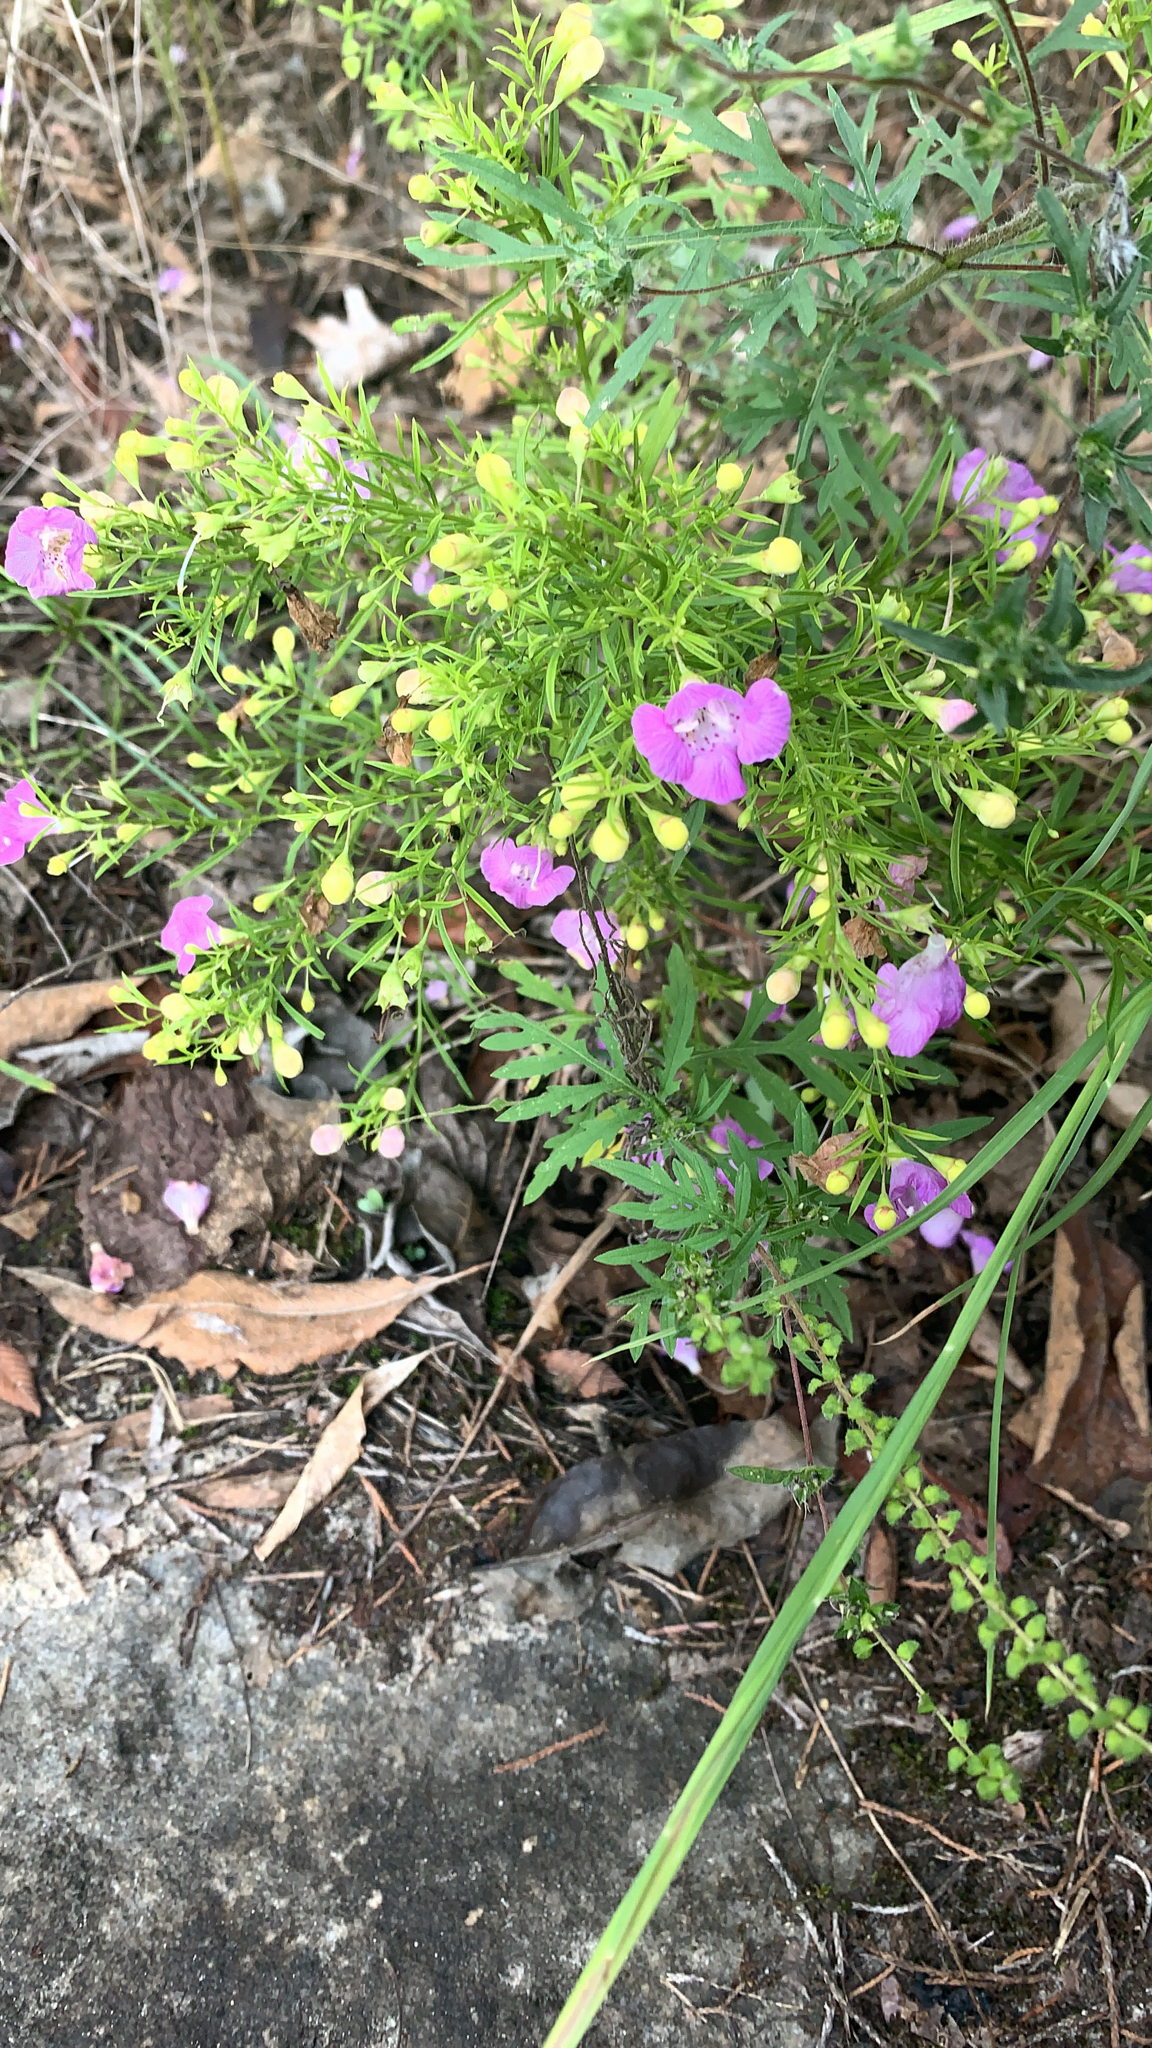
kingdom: Plantae
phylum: Tracheophyta
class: Magnoliopsida
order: Lamiales
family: Orobanchaceae
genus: Agalinis
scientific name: Agalinis tenuifolia
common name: Slender agalinis
